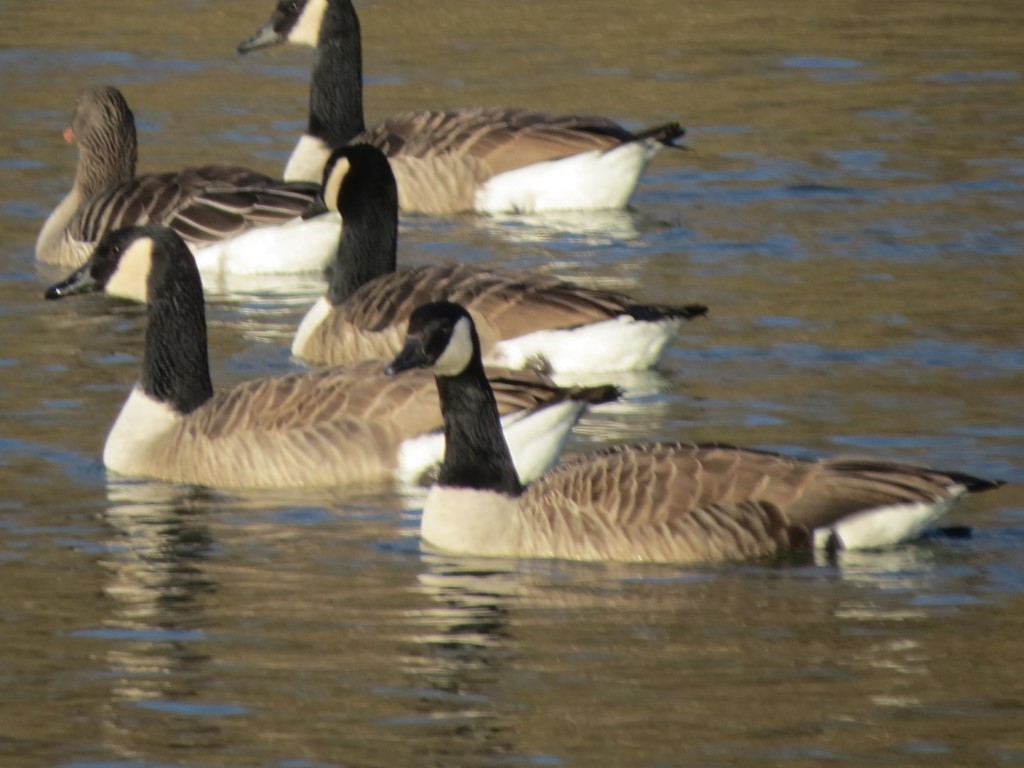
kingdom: Animalia
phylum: Chordata
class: Aves
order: Anseriformes
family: Anatidae
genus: Branta
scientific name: Branta canadensis
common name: Canada goose
